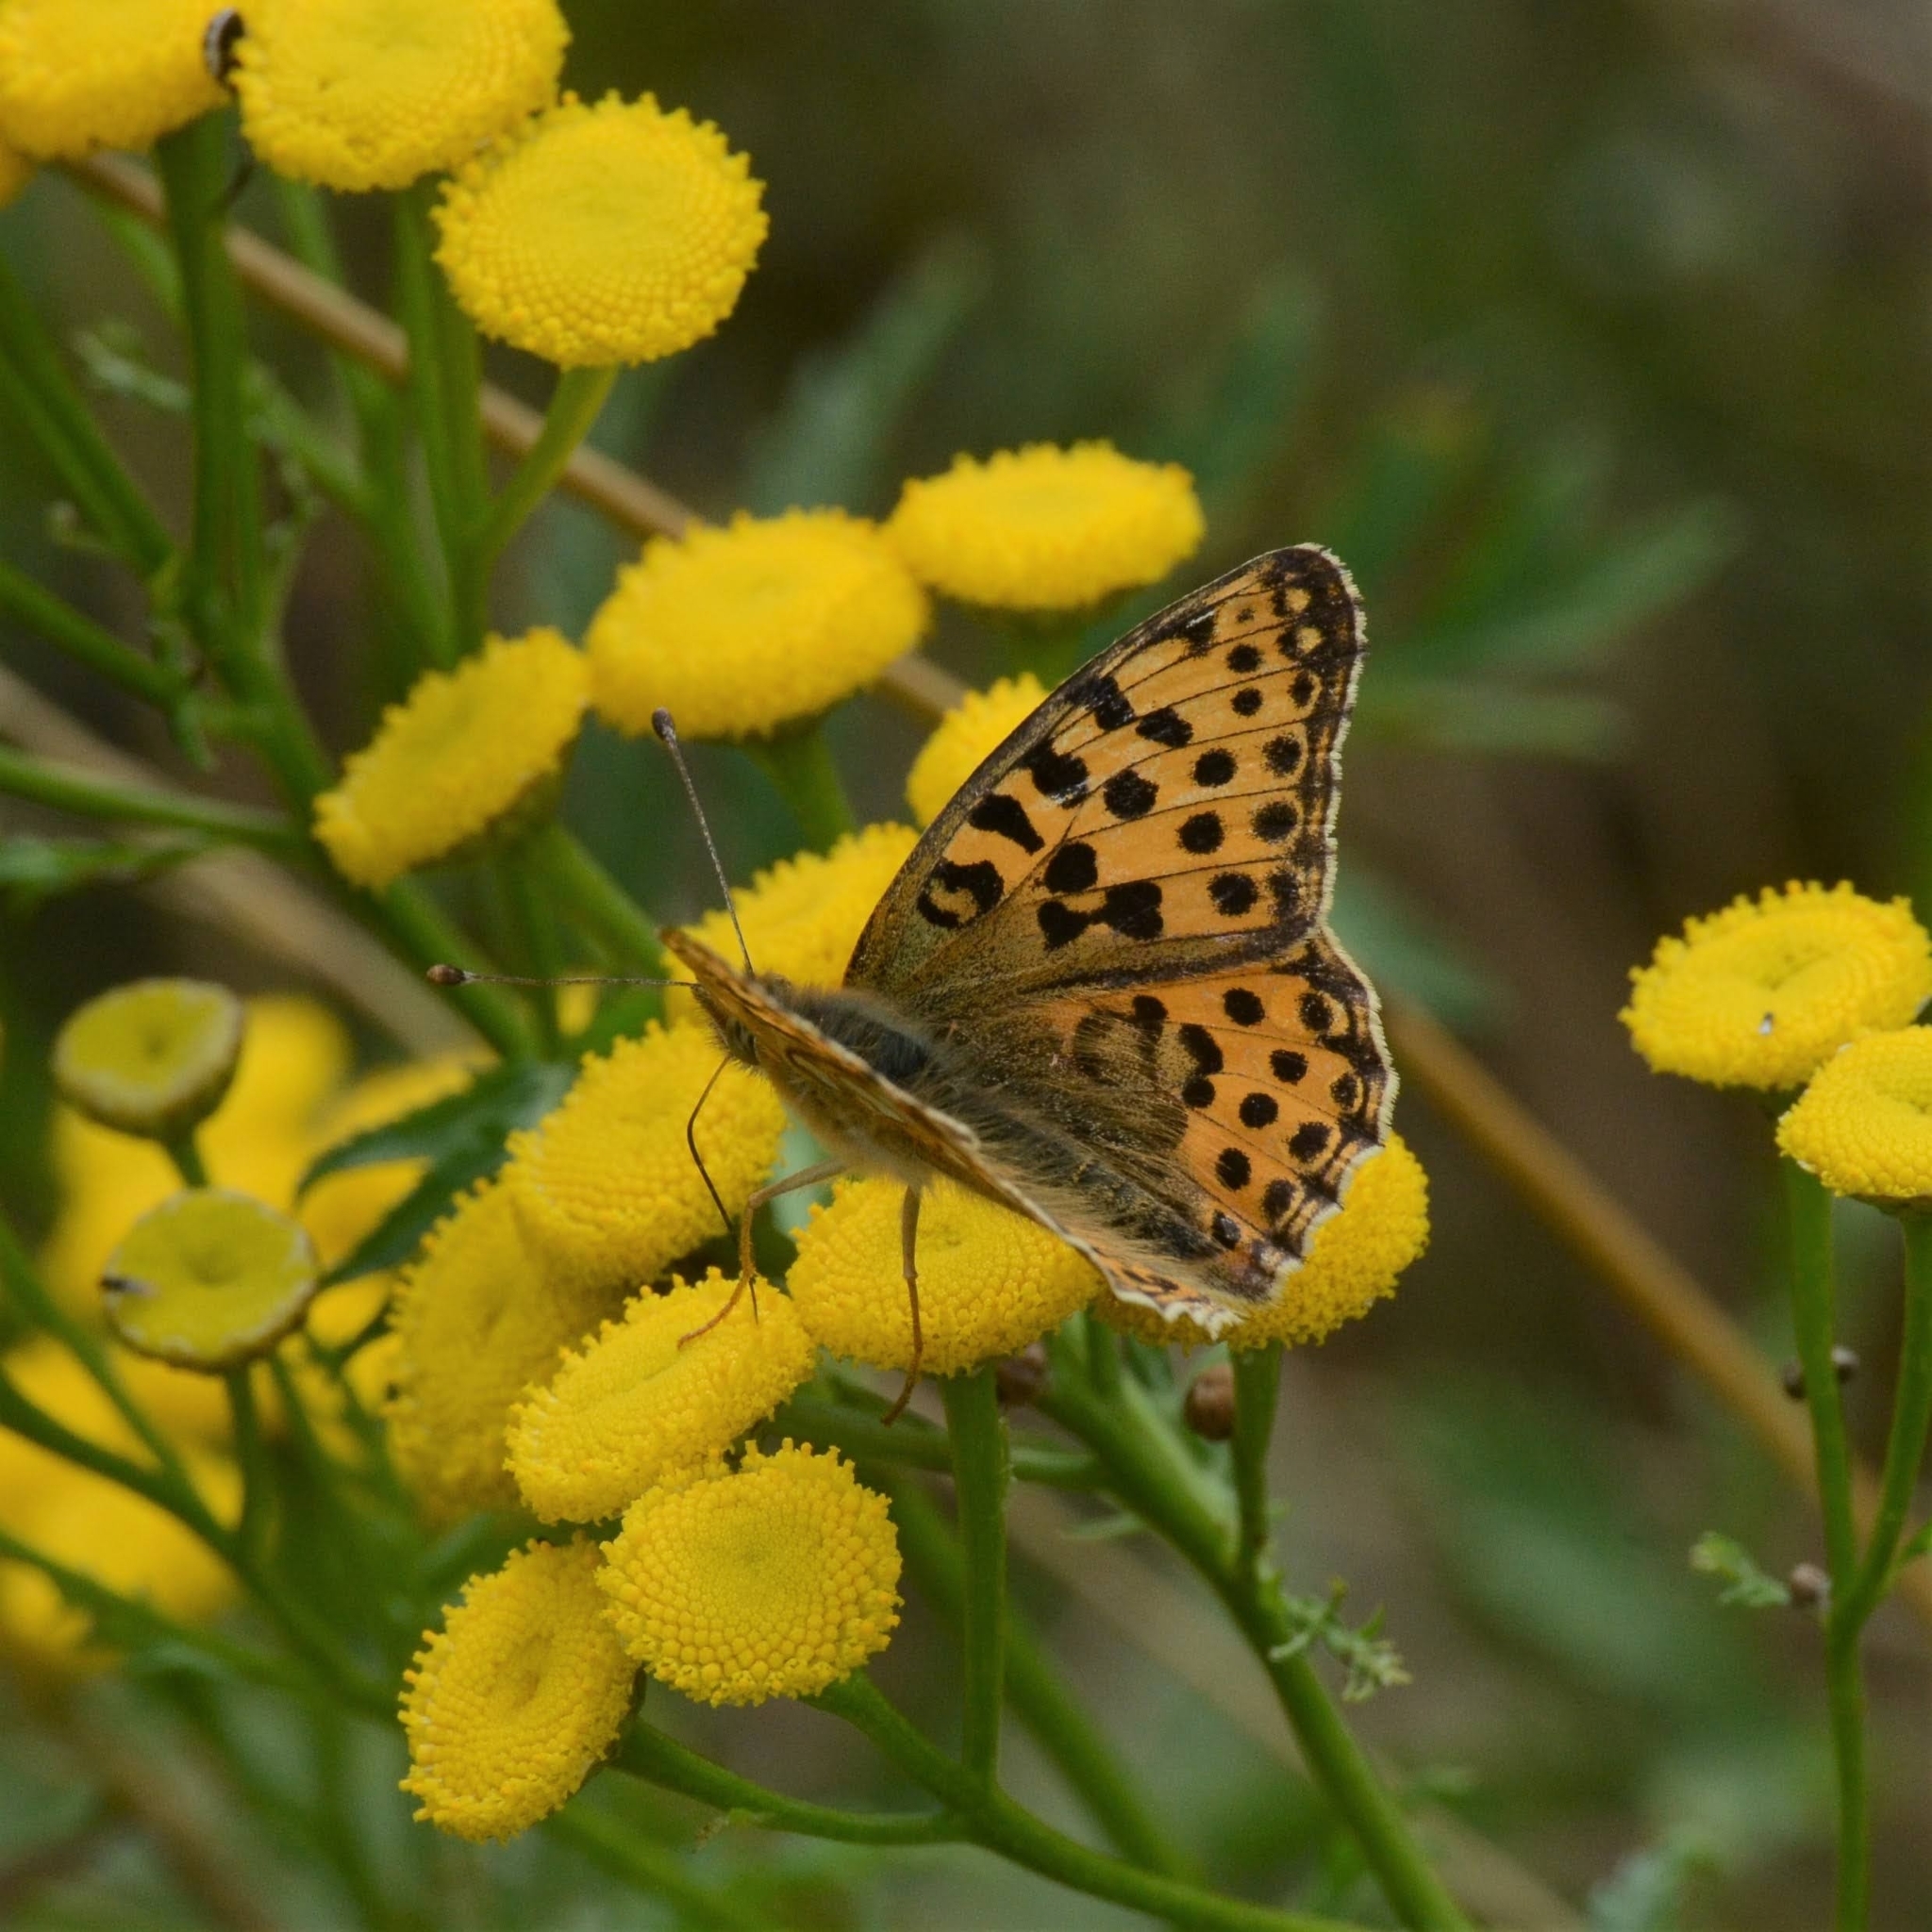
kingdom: Animalia
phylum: Arthropoda
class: Insecta
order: Lepidoptera
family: Nymphalidae
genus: Issoria
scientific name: Issoria lathonia
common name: Queen of spain fritillary
